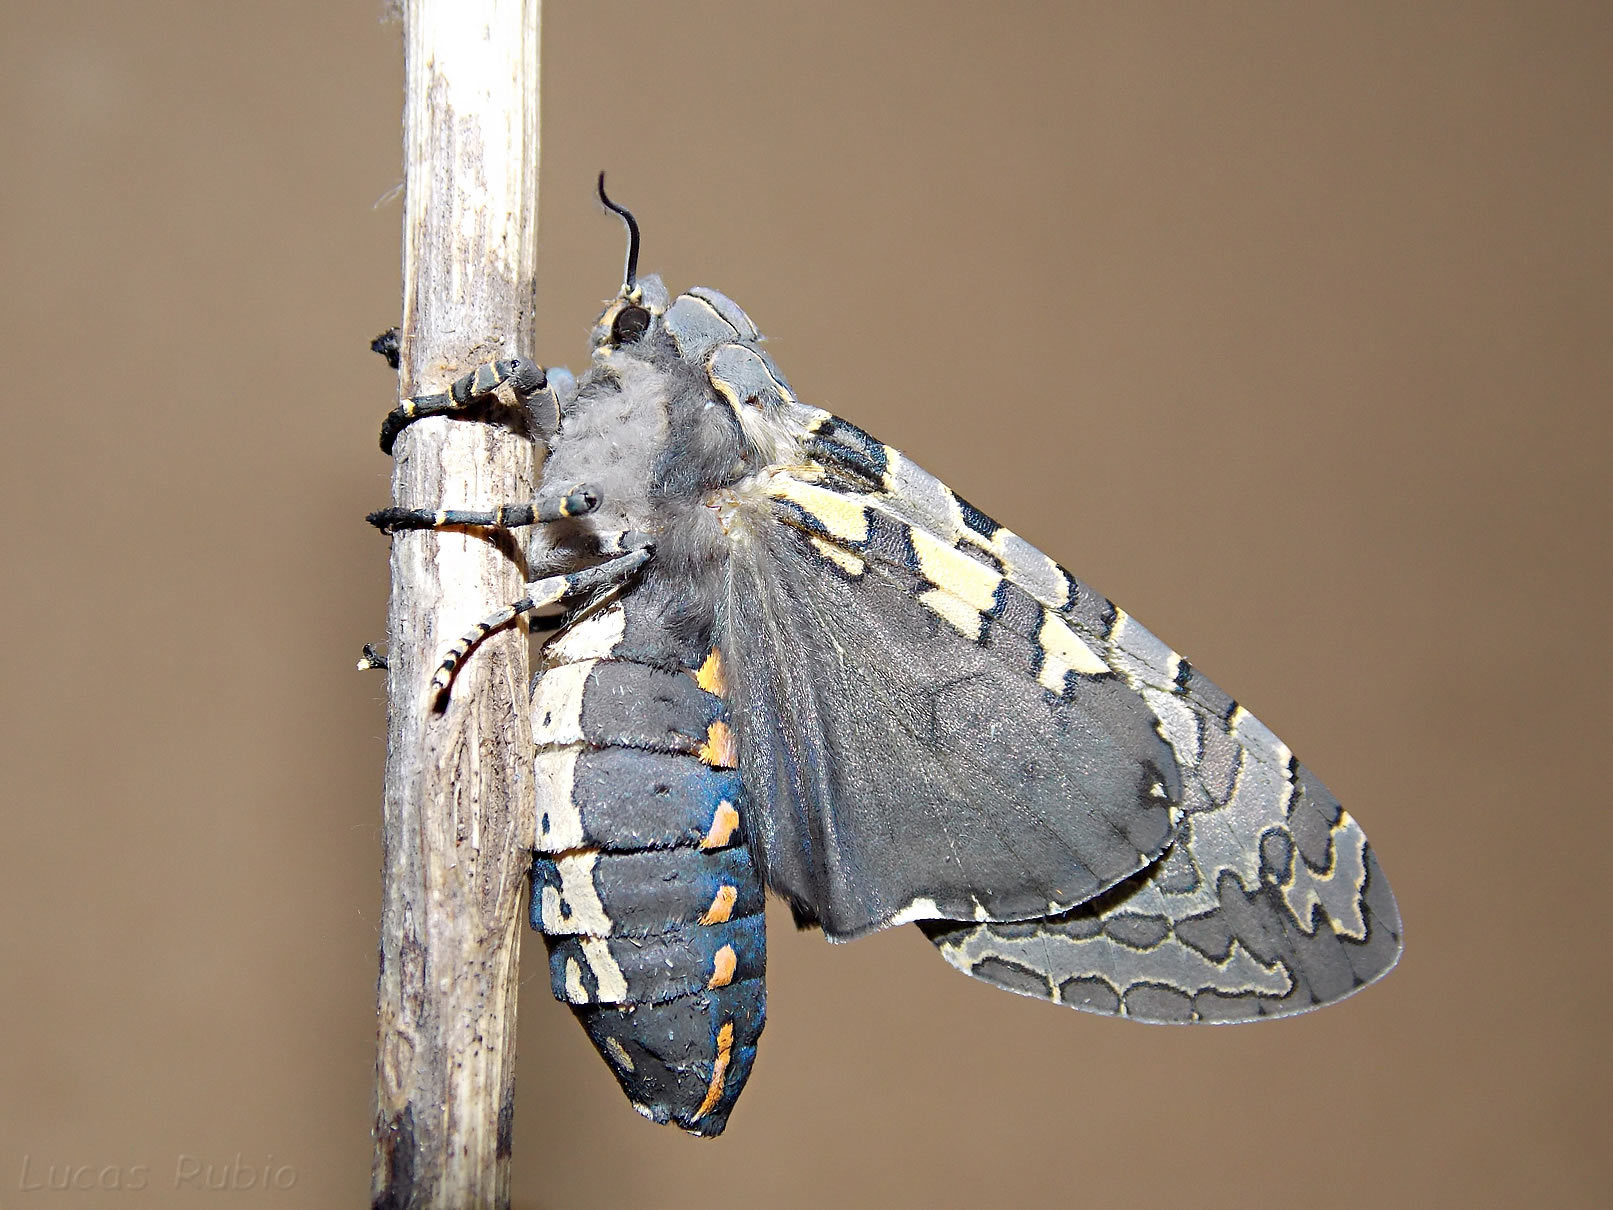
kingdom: Animalia
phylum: Arthropoda
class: Insecta
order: Lepidoptera
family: Erebidae
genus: Hypercompe
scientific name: Hypercompe indecisa
